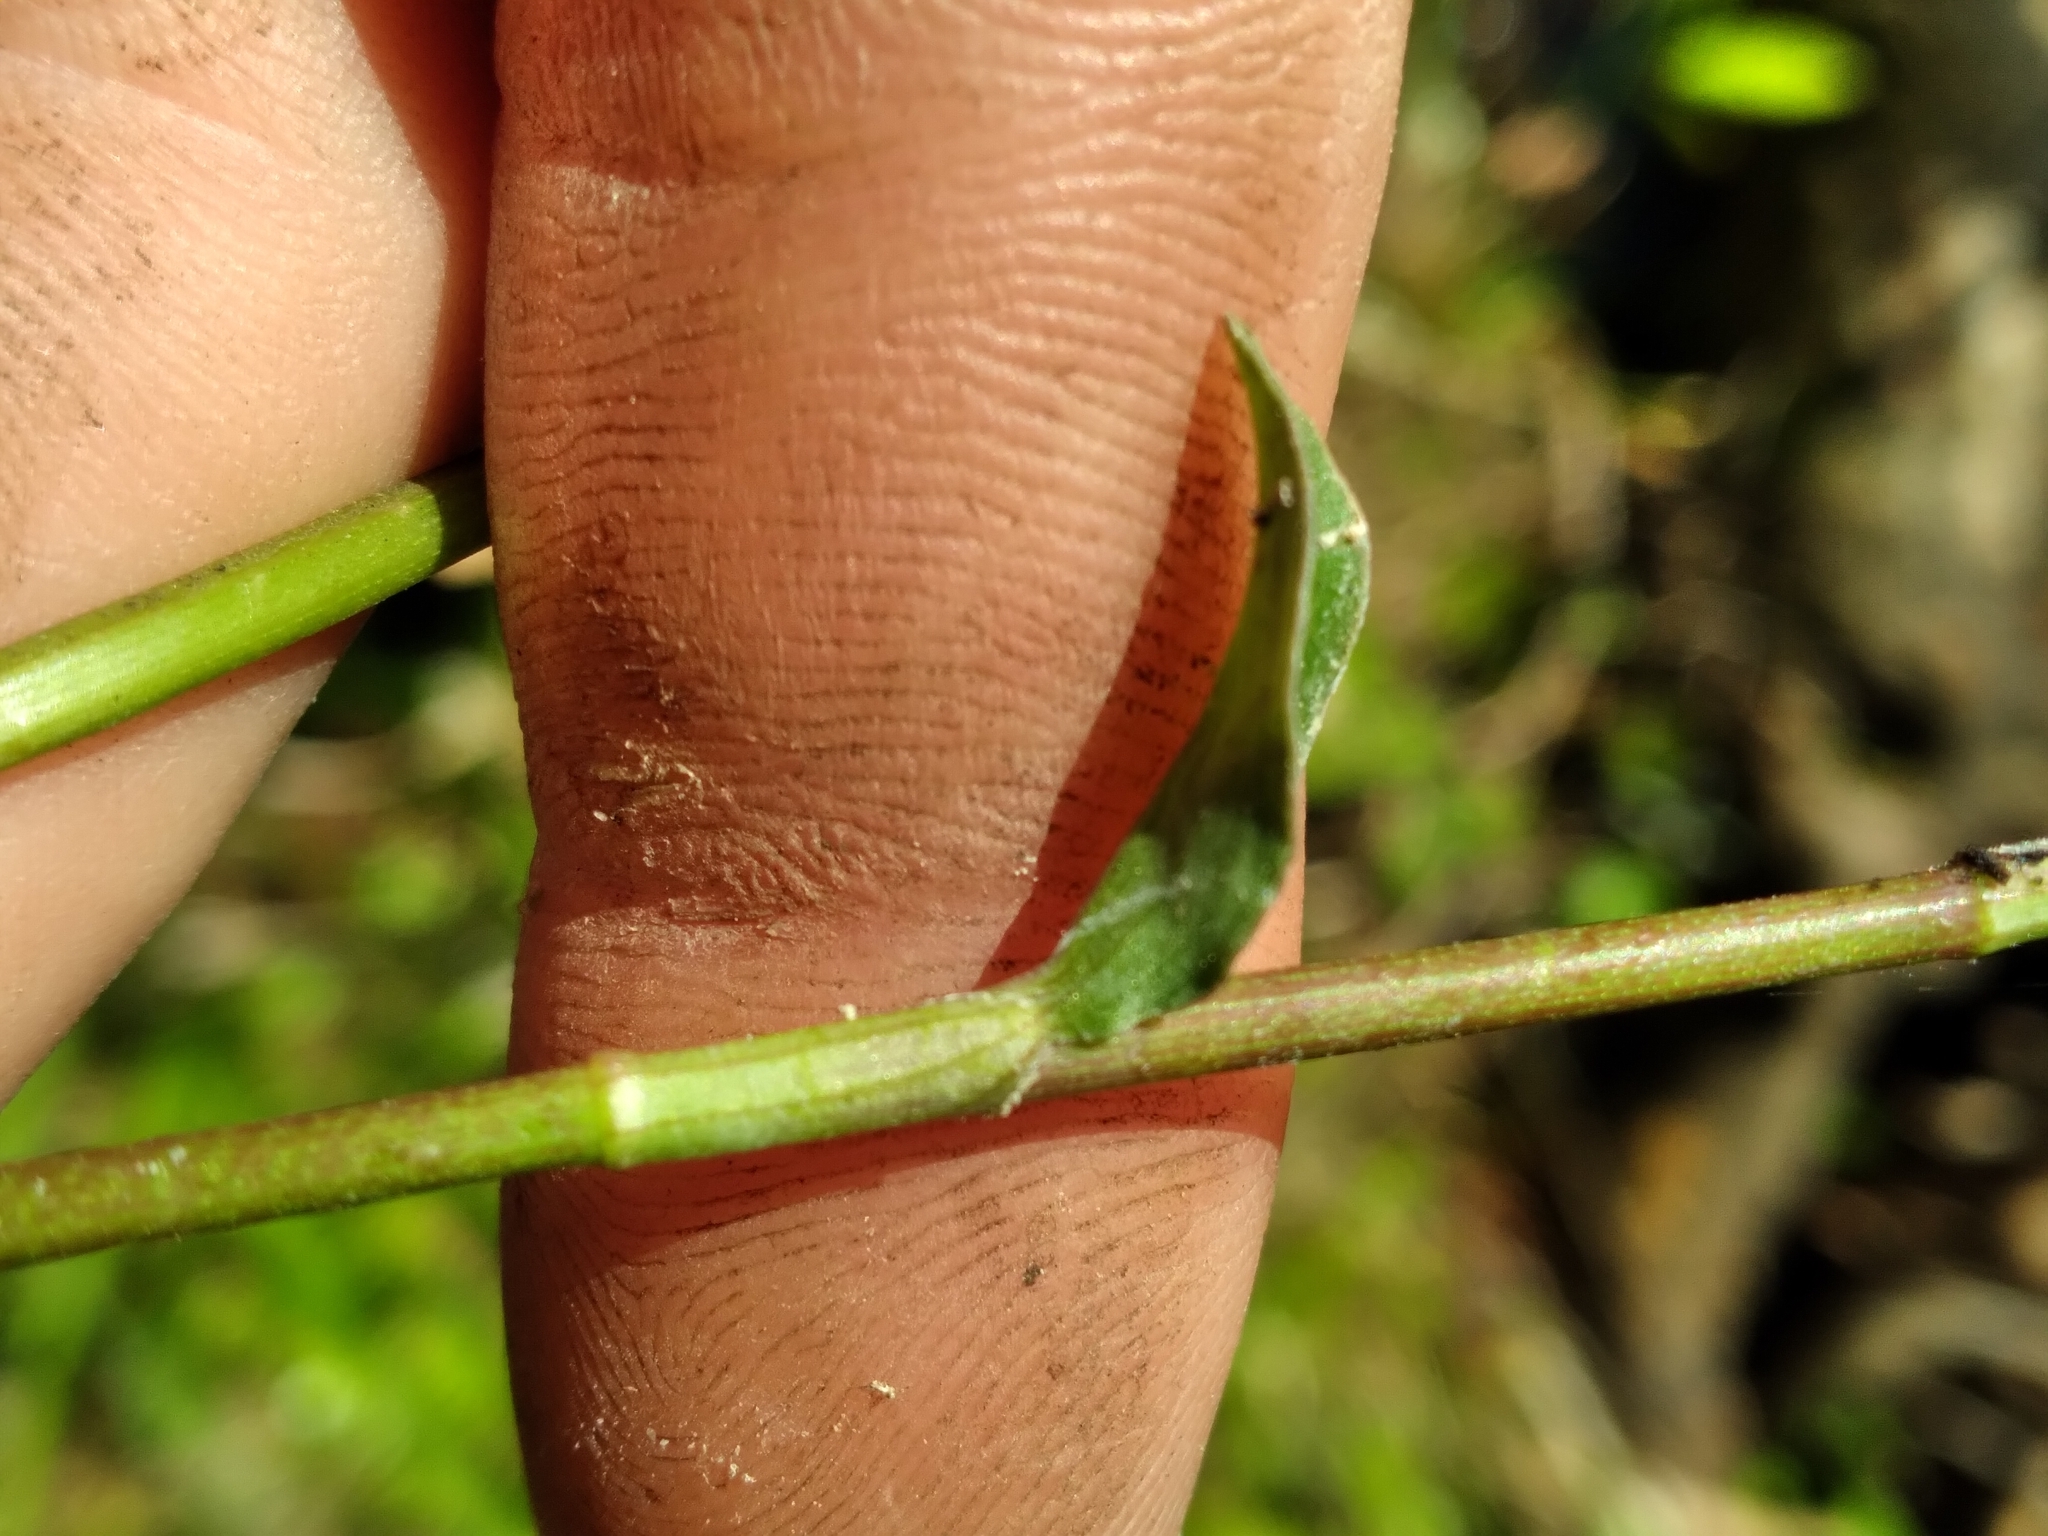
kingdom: Plantae
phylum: Tracheophyta
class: Liliopsida
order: Commelinales
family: Commelinaceae
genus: Commelina
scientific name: Commelina diffusa
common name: Climbing dayflower
